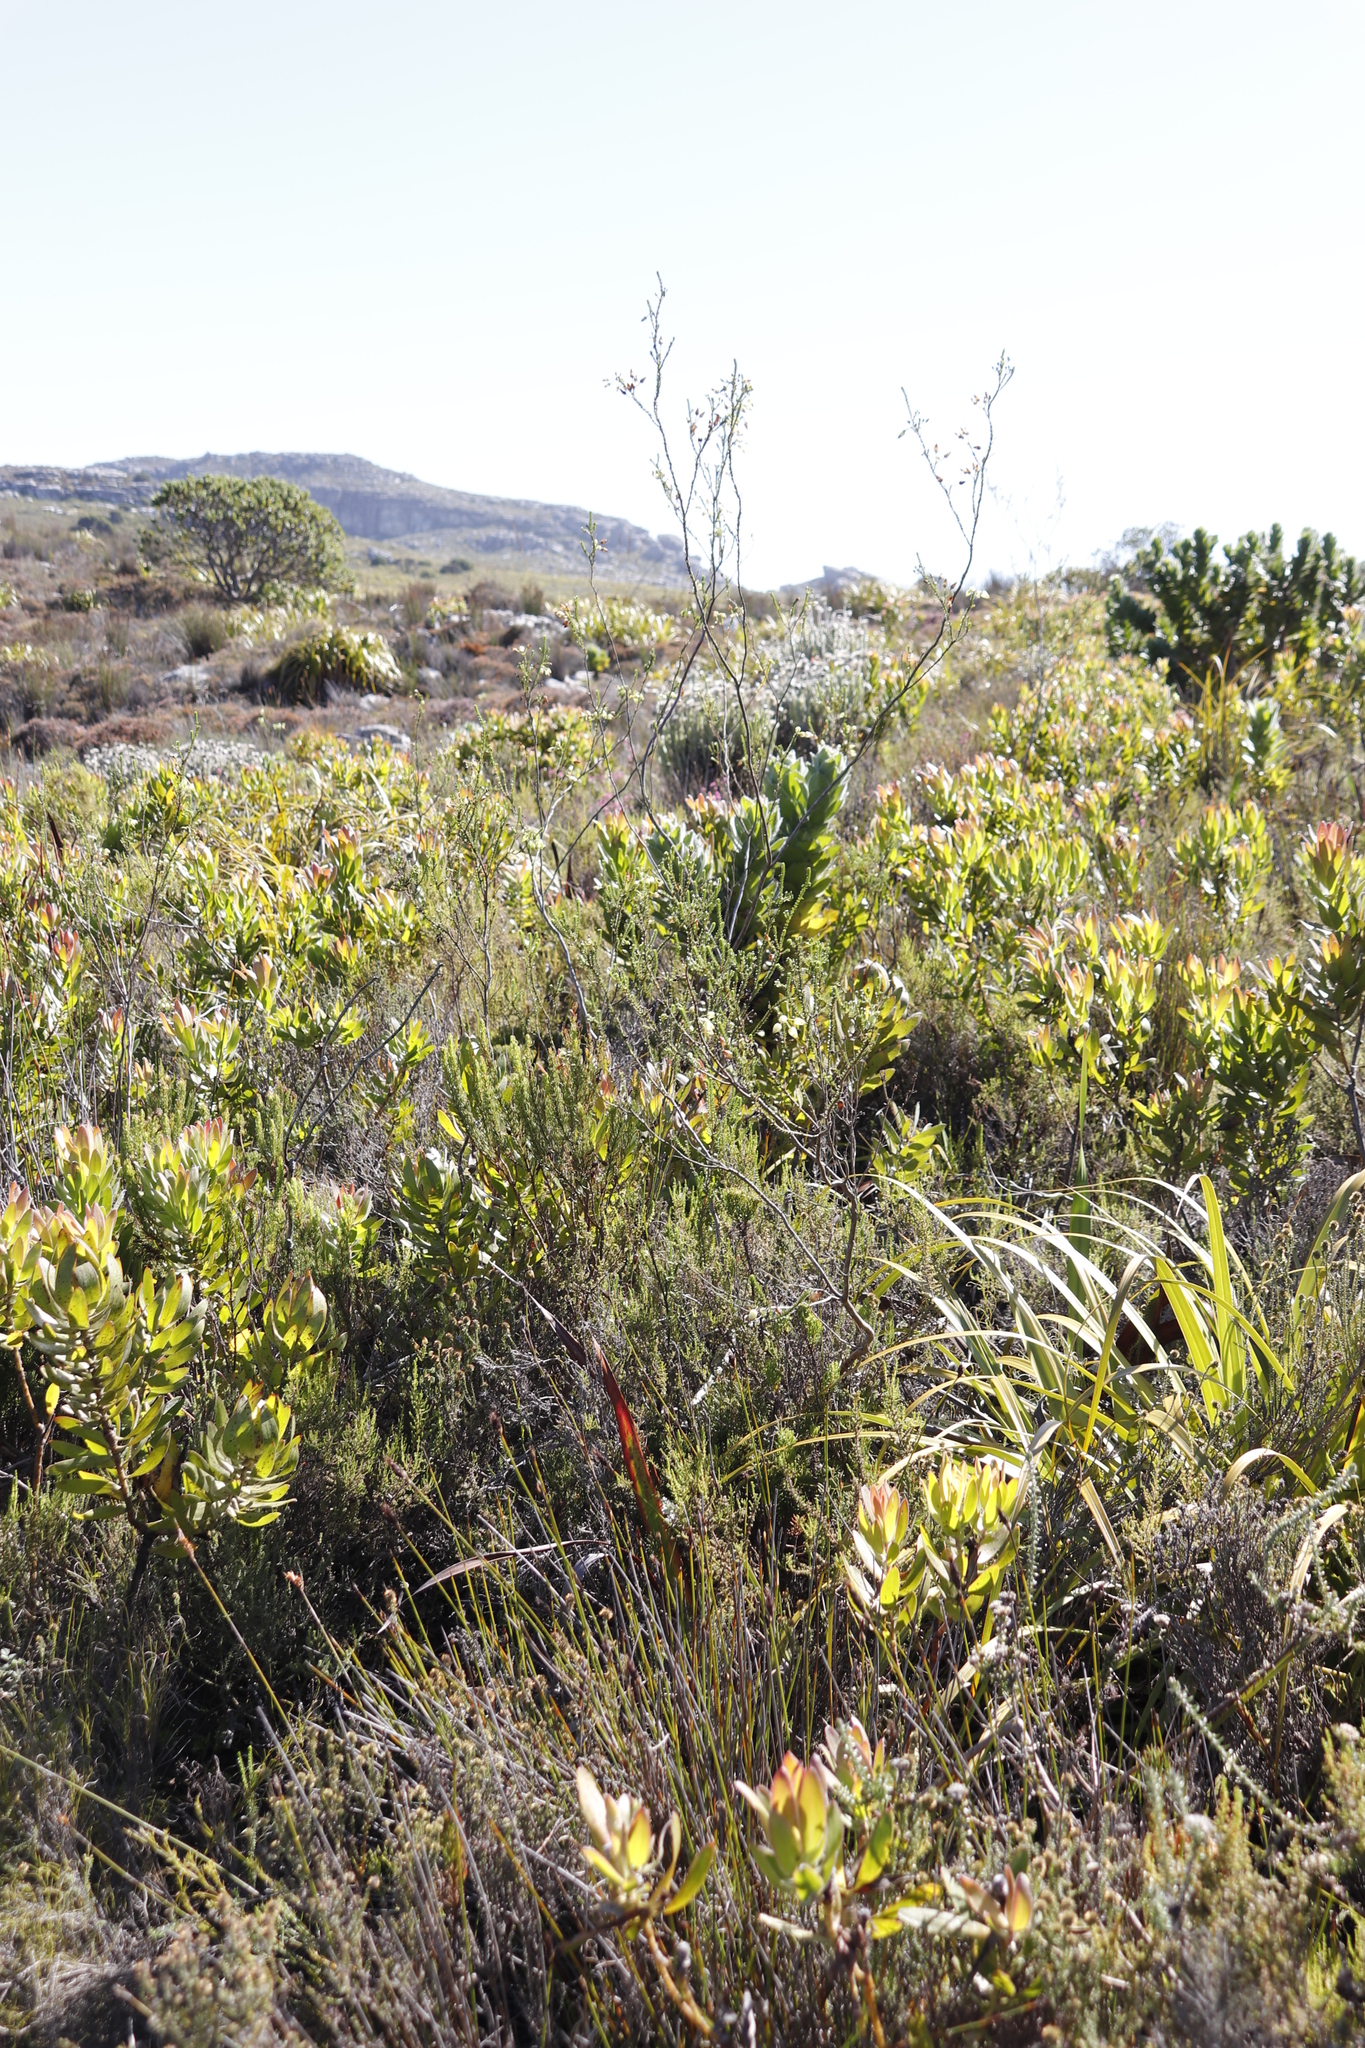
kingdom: Plantae
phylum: Tracheophyta
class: Magnoliopsida
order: Ericales
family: Ericaceae
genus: Erica
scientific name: Erica urna-viridis
